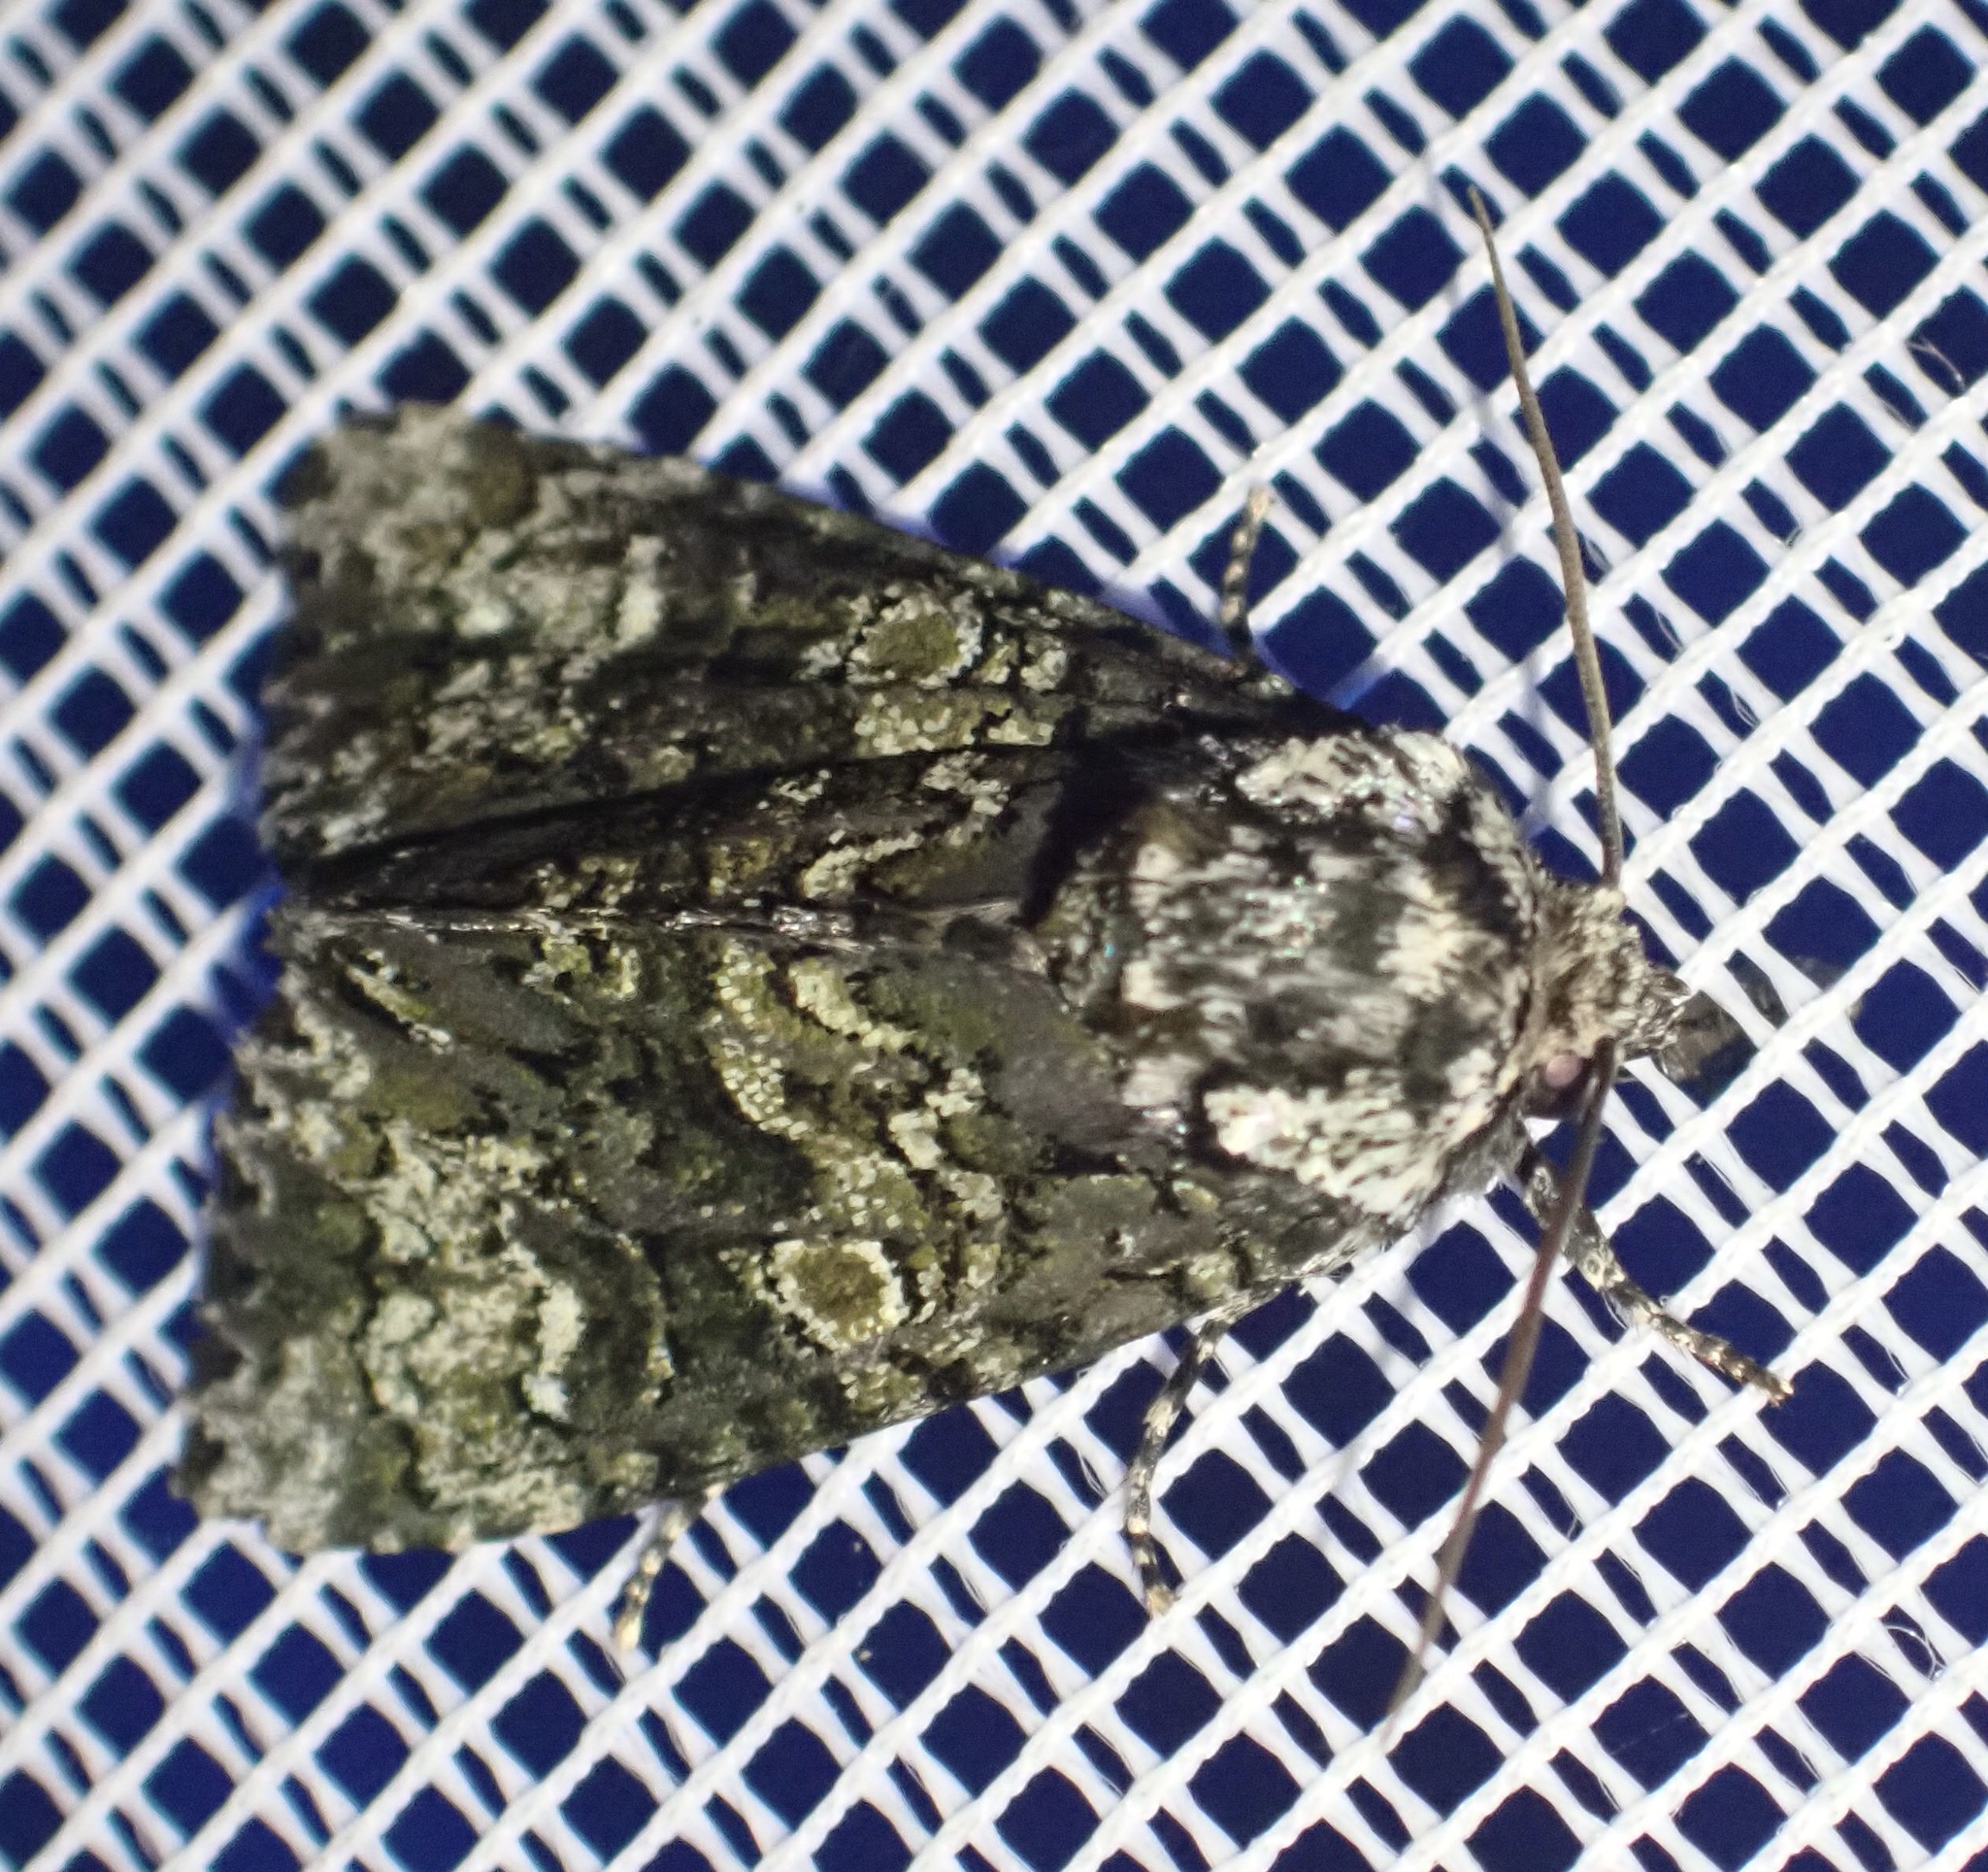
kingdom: Animalia
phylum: Arthropoda
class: Insecta
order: Lepidoptera
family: Noctuidae
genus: Craniophora
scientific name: Craniophora ligustri
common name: Coronet
